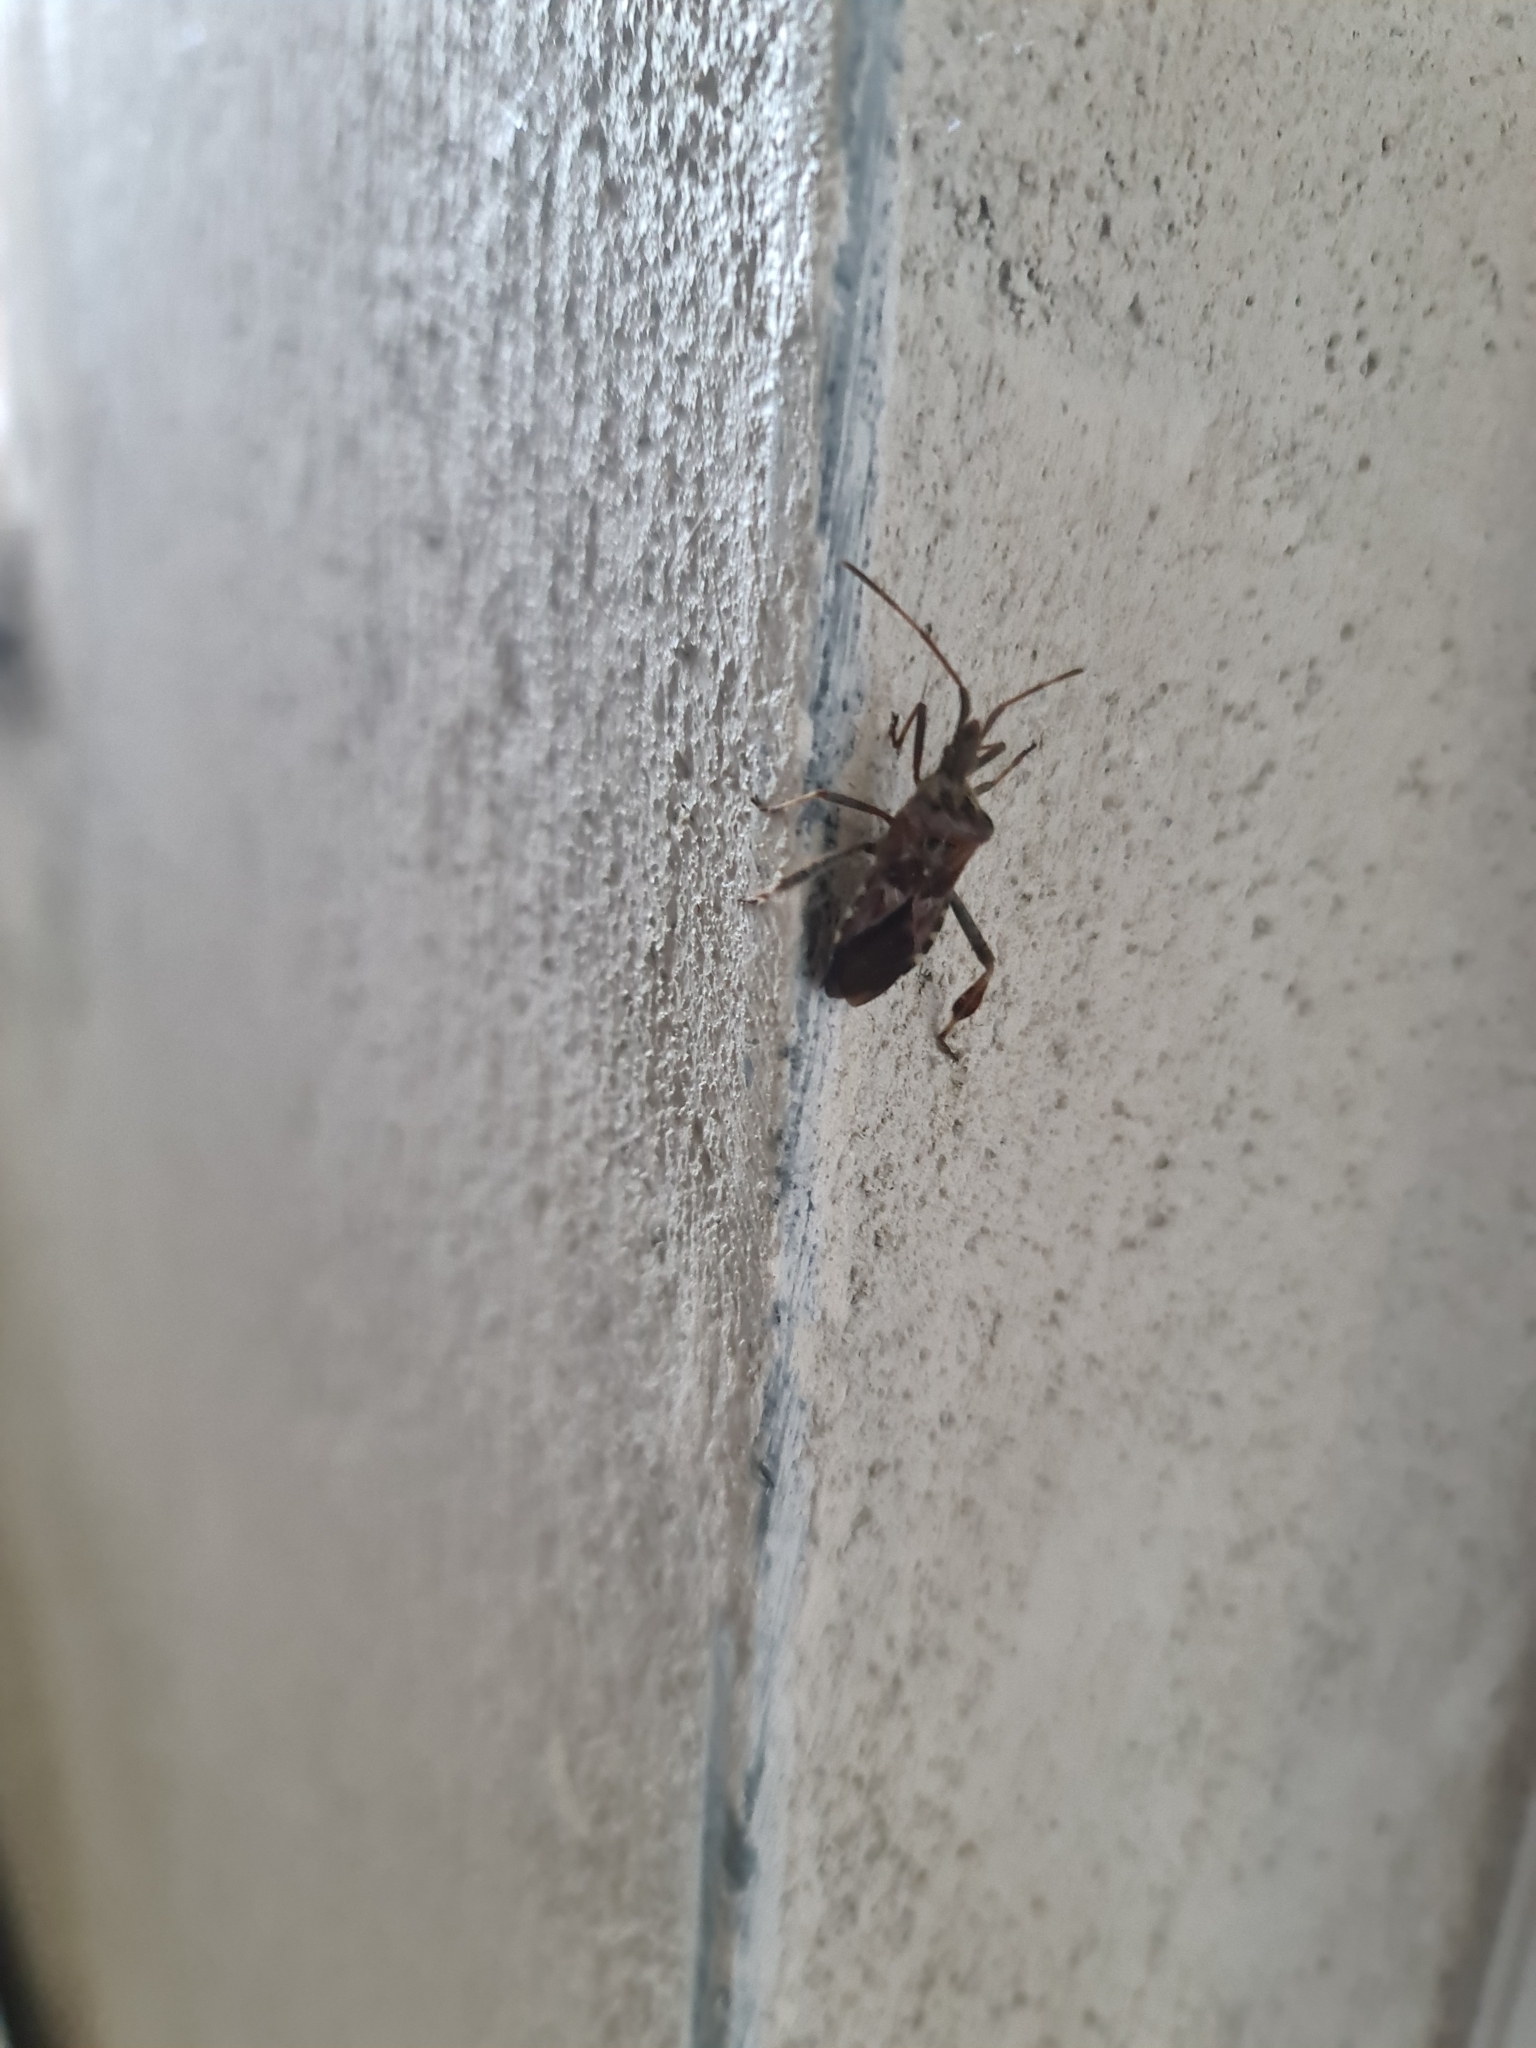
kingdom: Animalia
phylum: Arthropoda
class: Insecta
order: Hemiptera
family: Coreidae
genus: Leptoglossus
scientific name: Leptoglossus occidentalis
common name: Western conifer-seed bug
